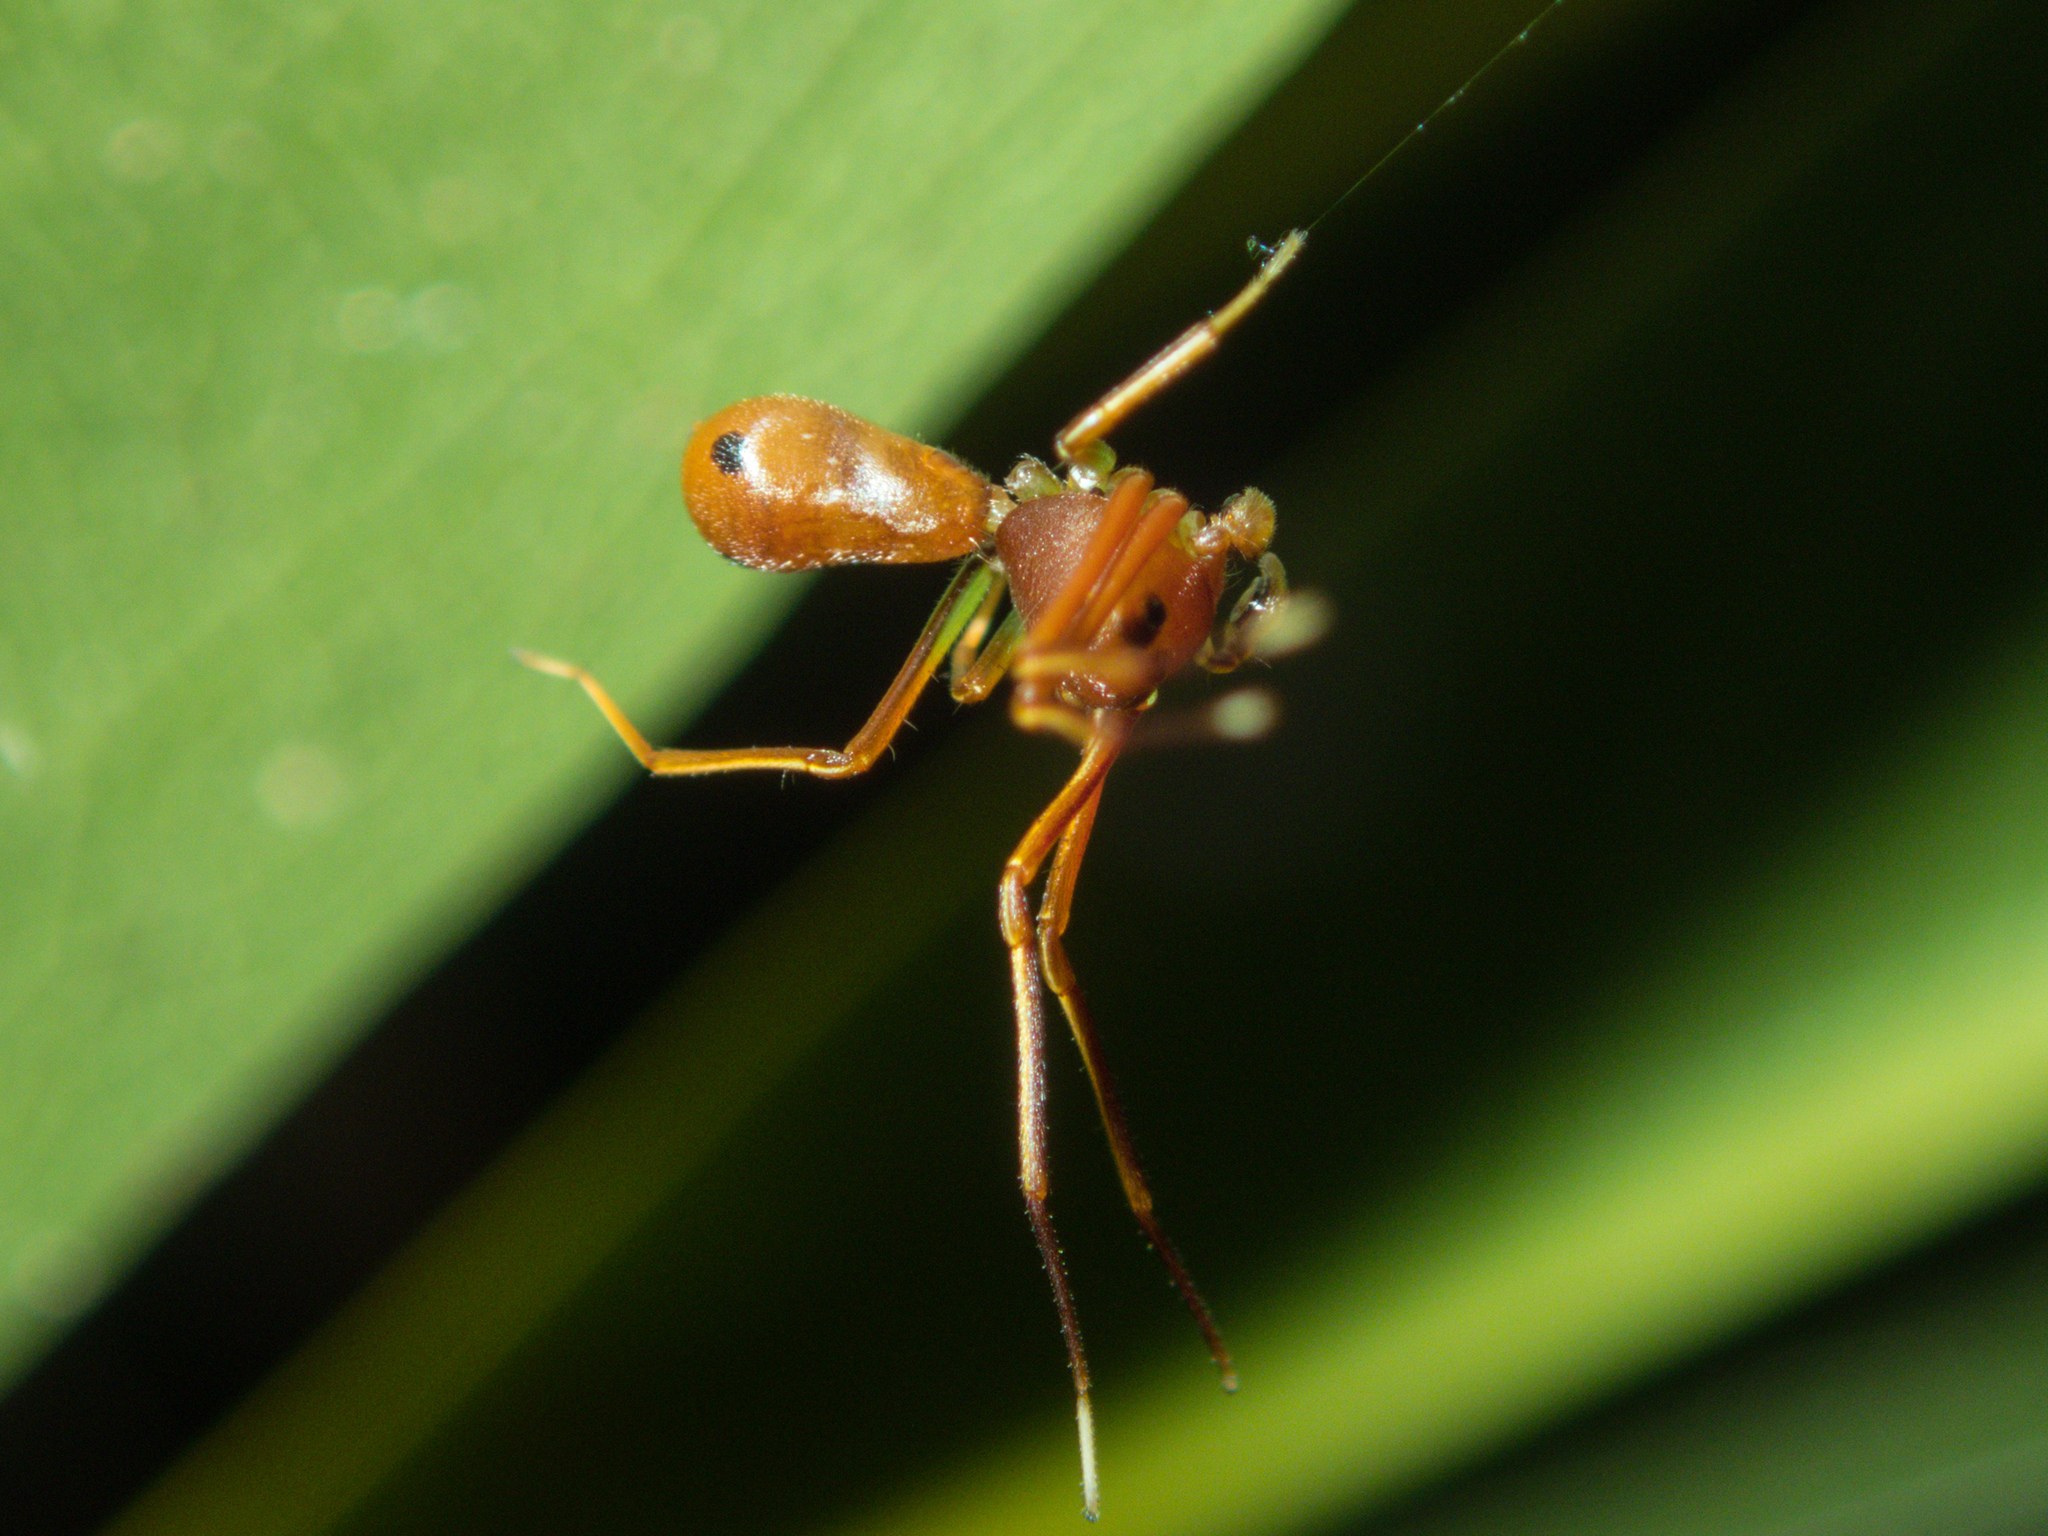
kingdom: Animalia
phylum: Arthropoda
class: Arachnida
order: Araneae
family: Thomisidae
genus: Amyciaea
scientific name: Amyciaea forticeps
